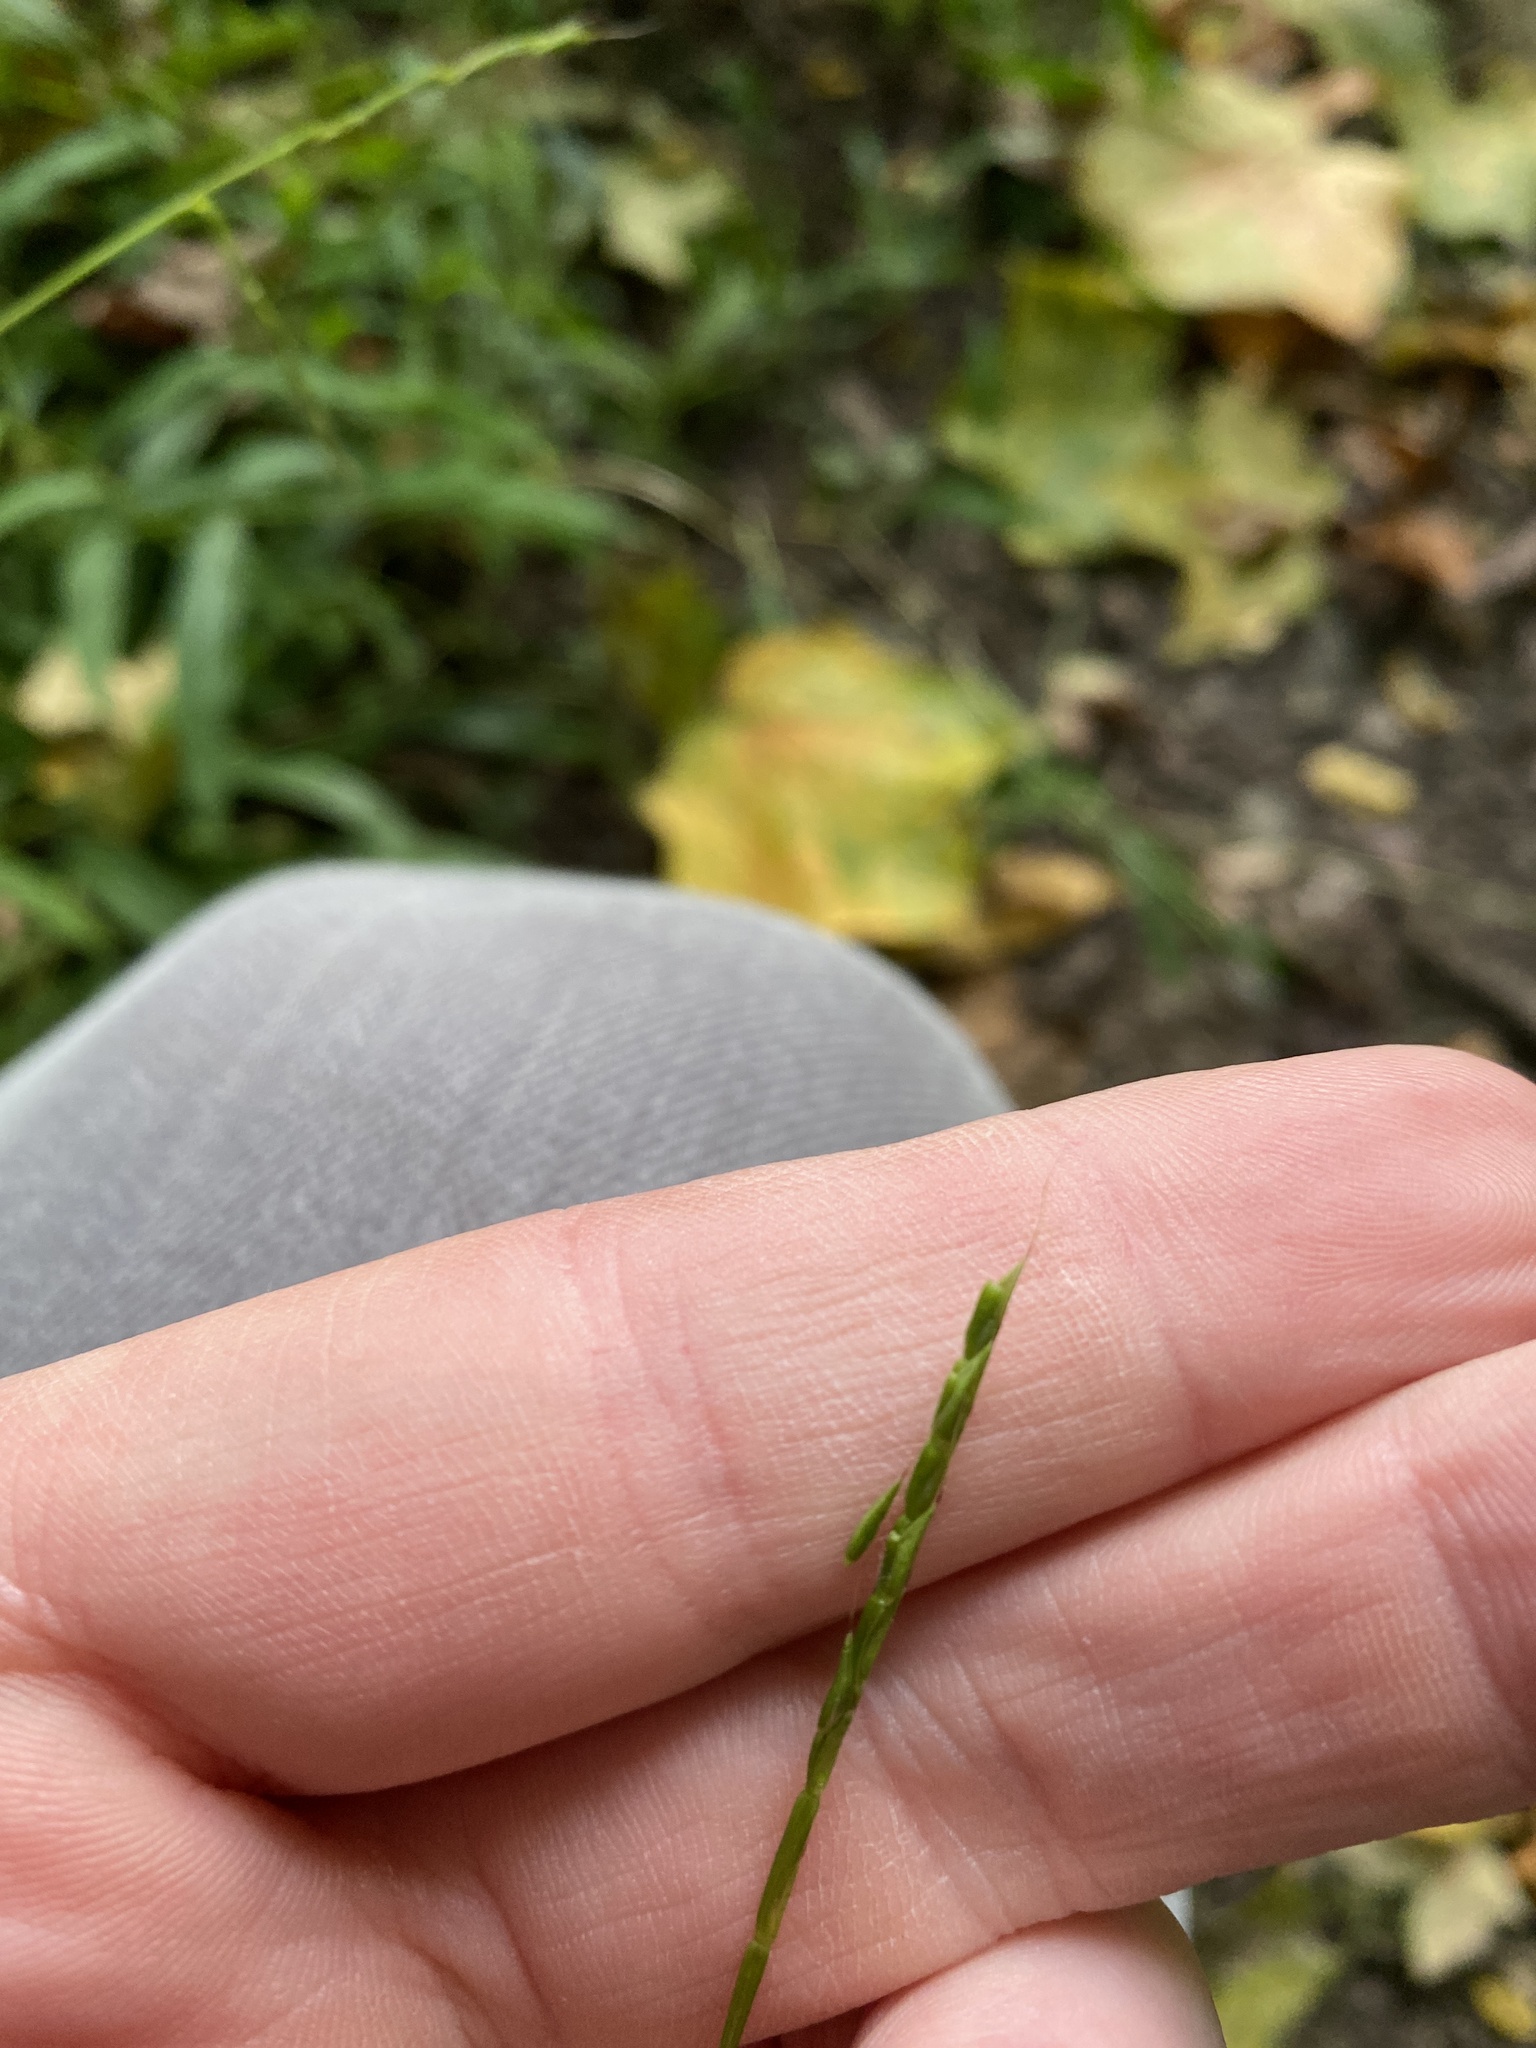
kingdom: Plantae
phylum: Tracheophyta
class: Liliopsida
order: Poales
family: Poaceae
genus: Microstegium
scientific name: Microstegium vimineum
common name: Japanese stiltgrass
